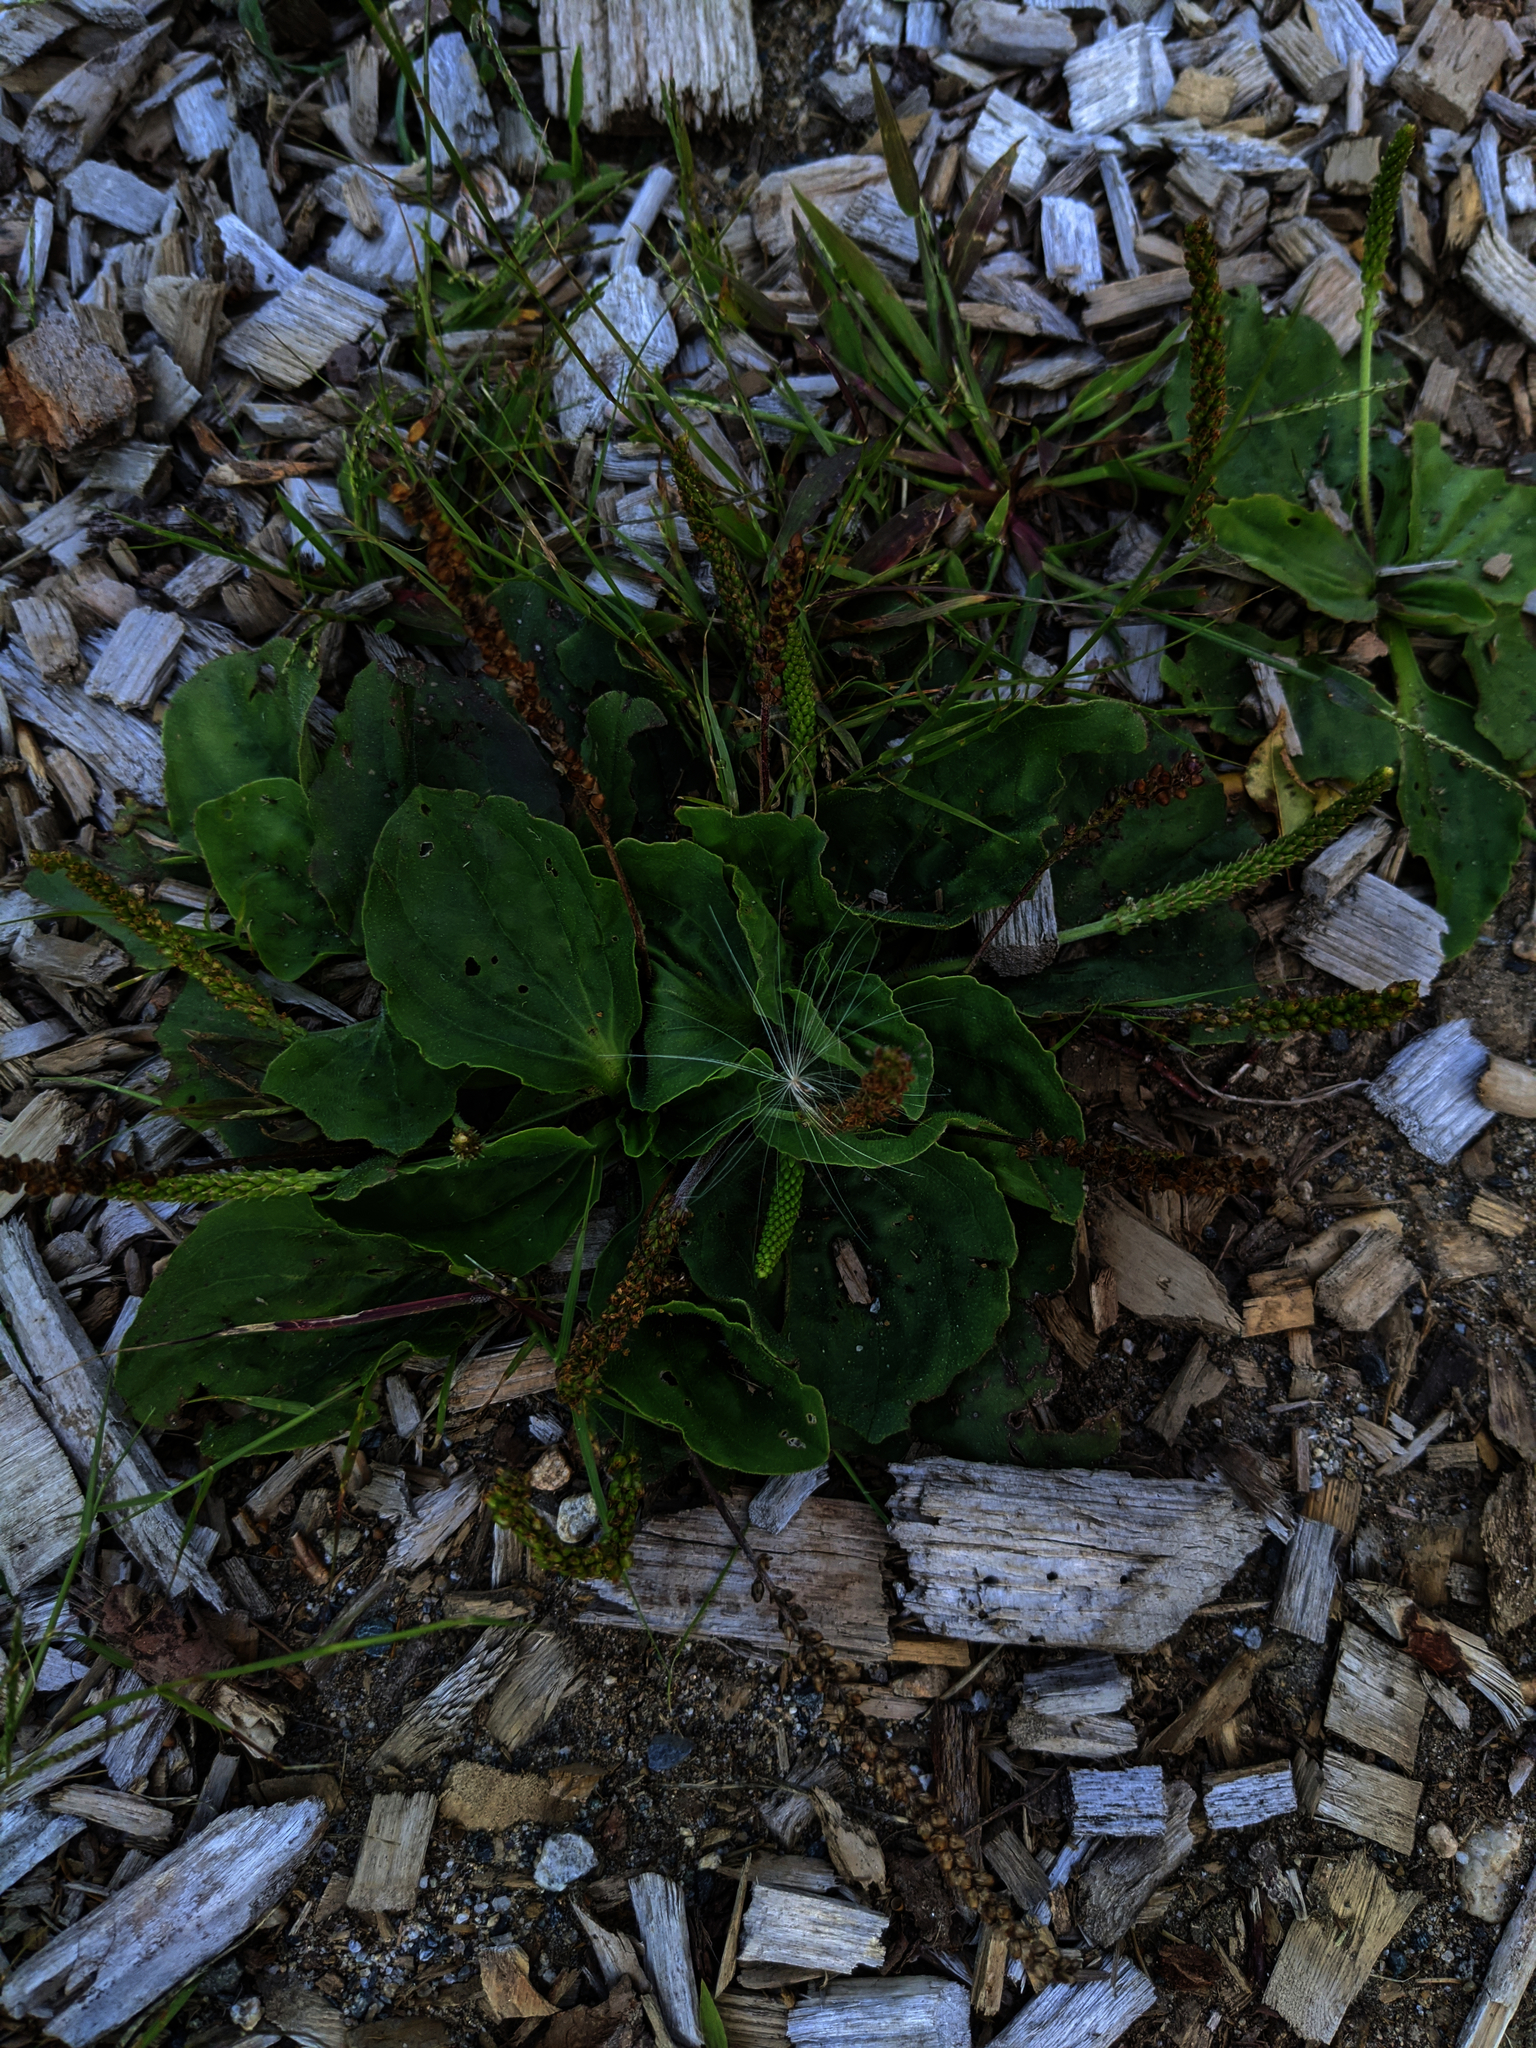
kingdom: Plantae
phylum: Tracheophyta
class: Magnoliopsida
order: Lamiales
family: Plantaginaceae
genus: Plantago
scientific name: Plantago major
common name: Common plantain
